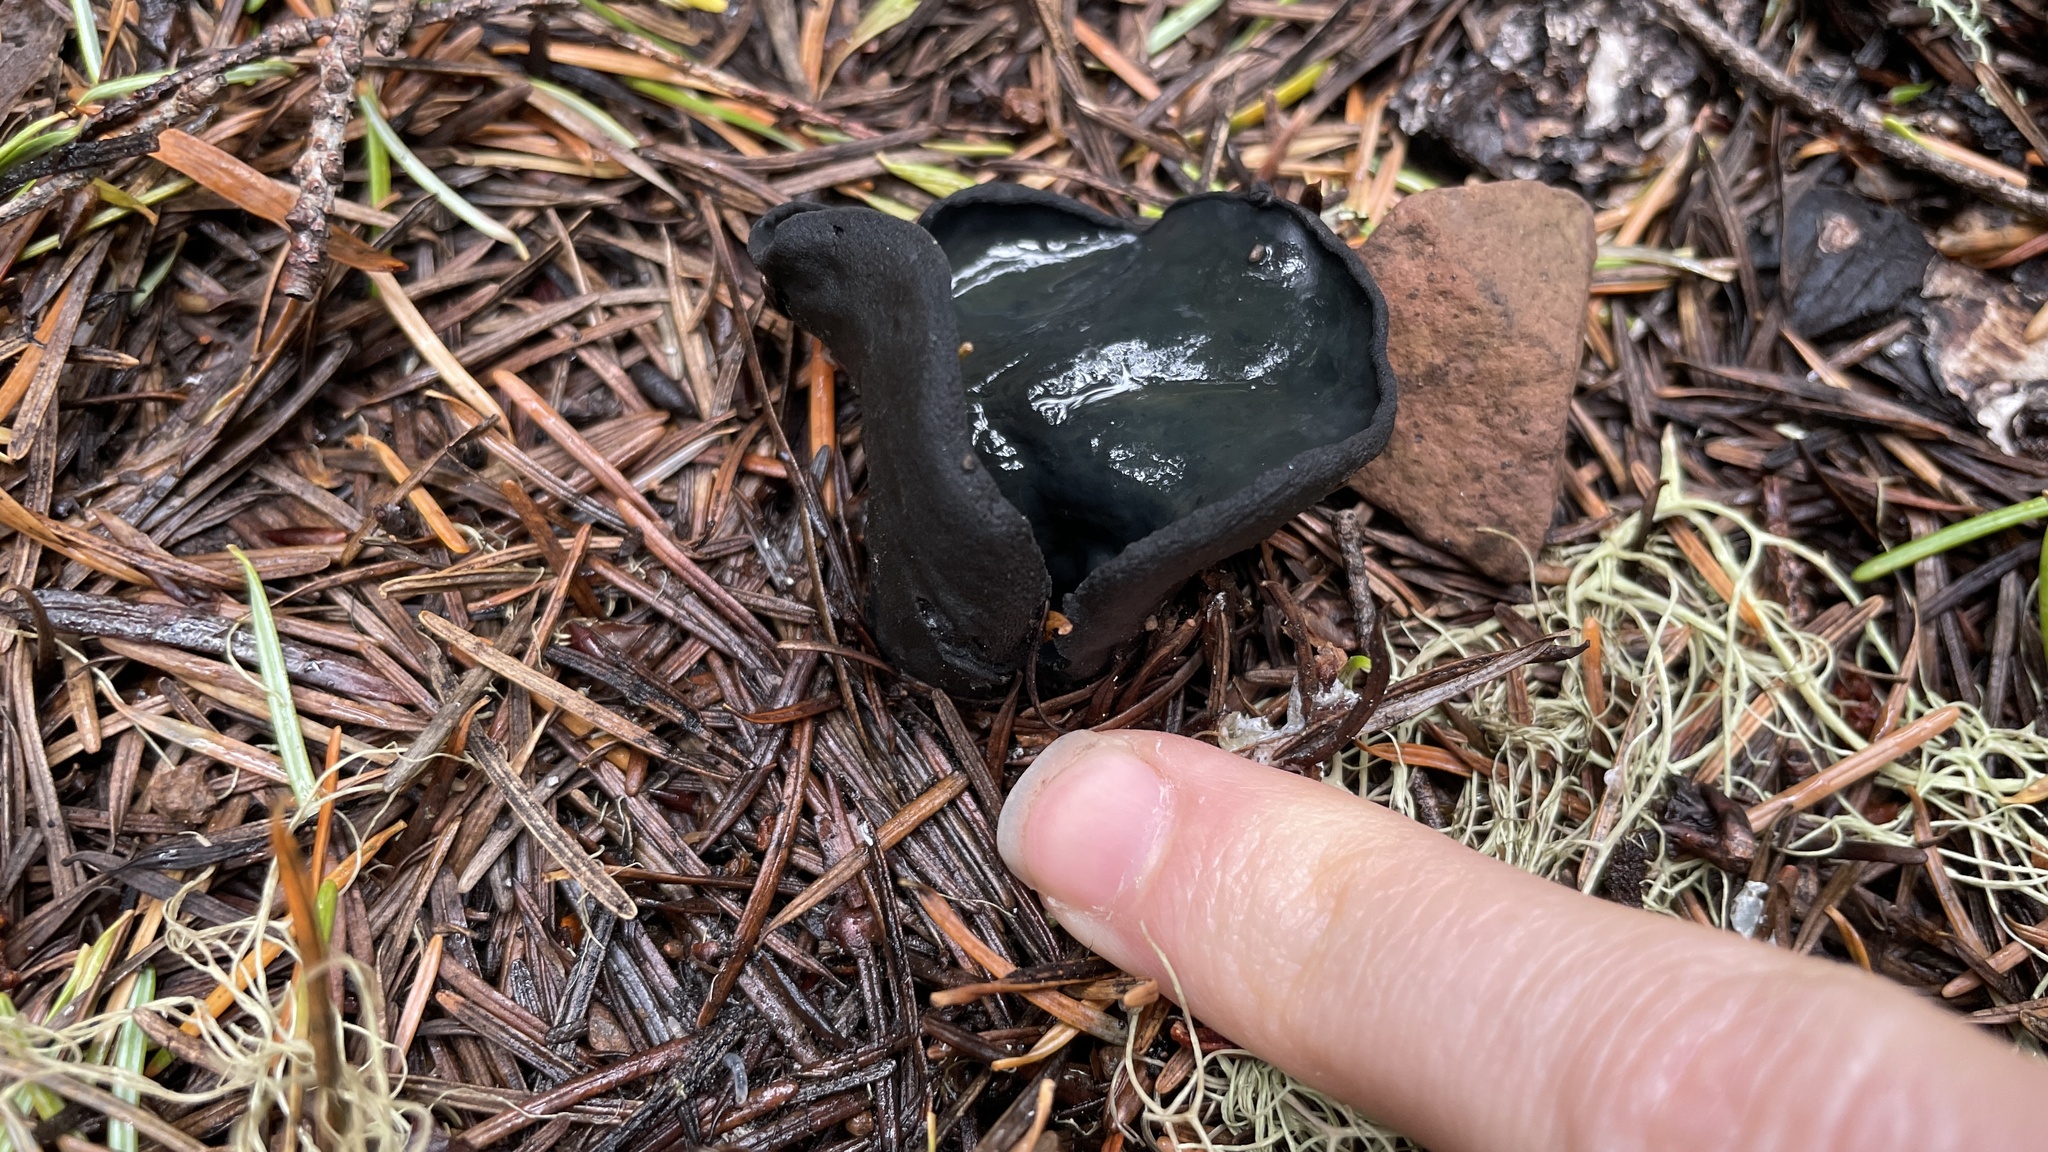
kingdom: Fungi
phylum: Ascomycota
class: Pezizomycetes
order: Pezizales
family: Sarcosomataceae
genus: Urnula
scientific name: Urnula padeniana
